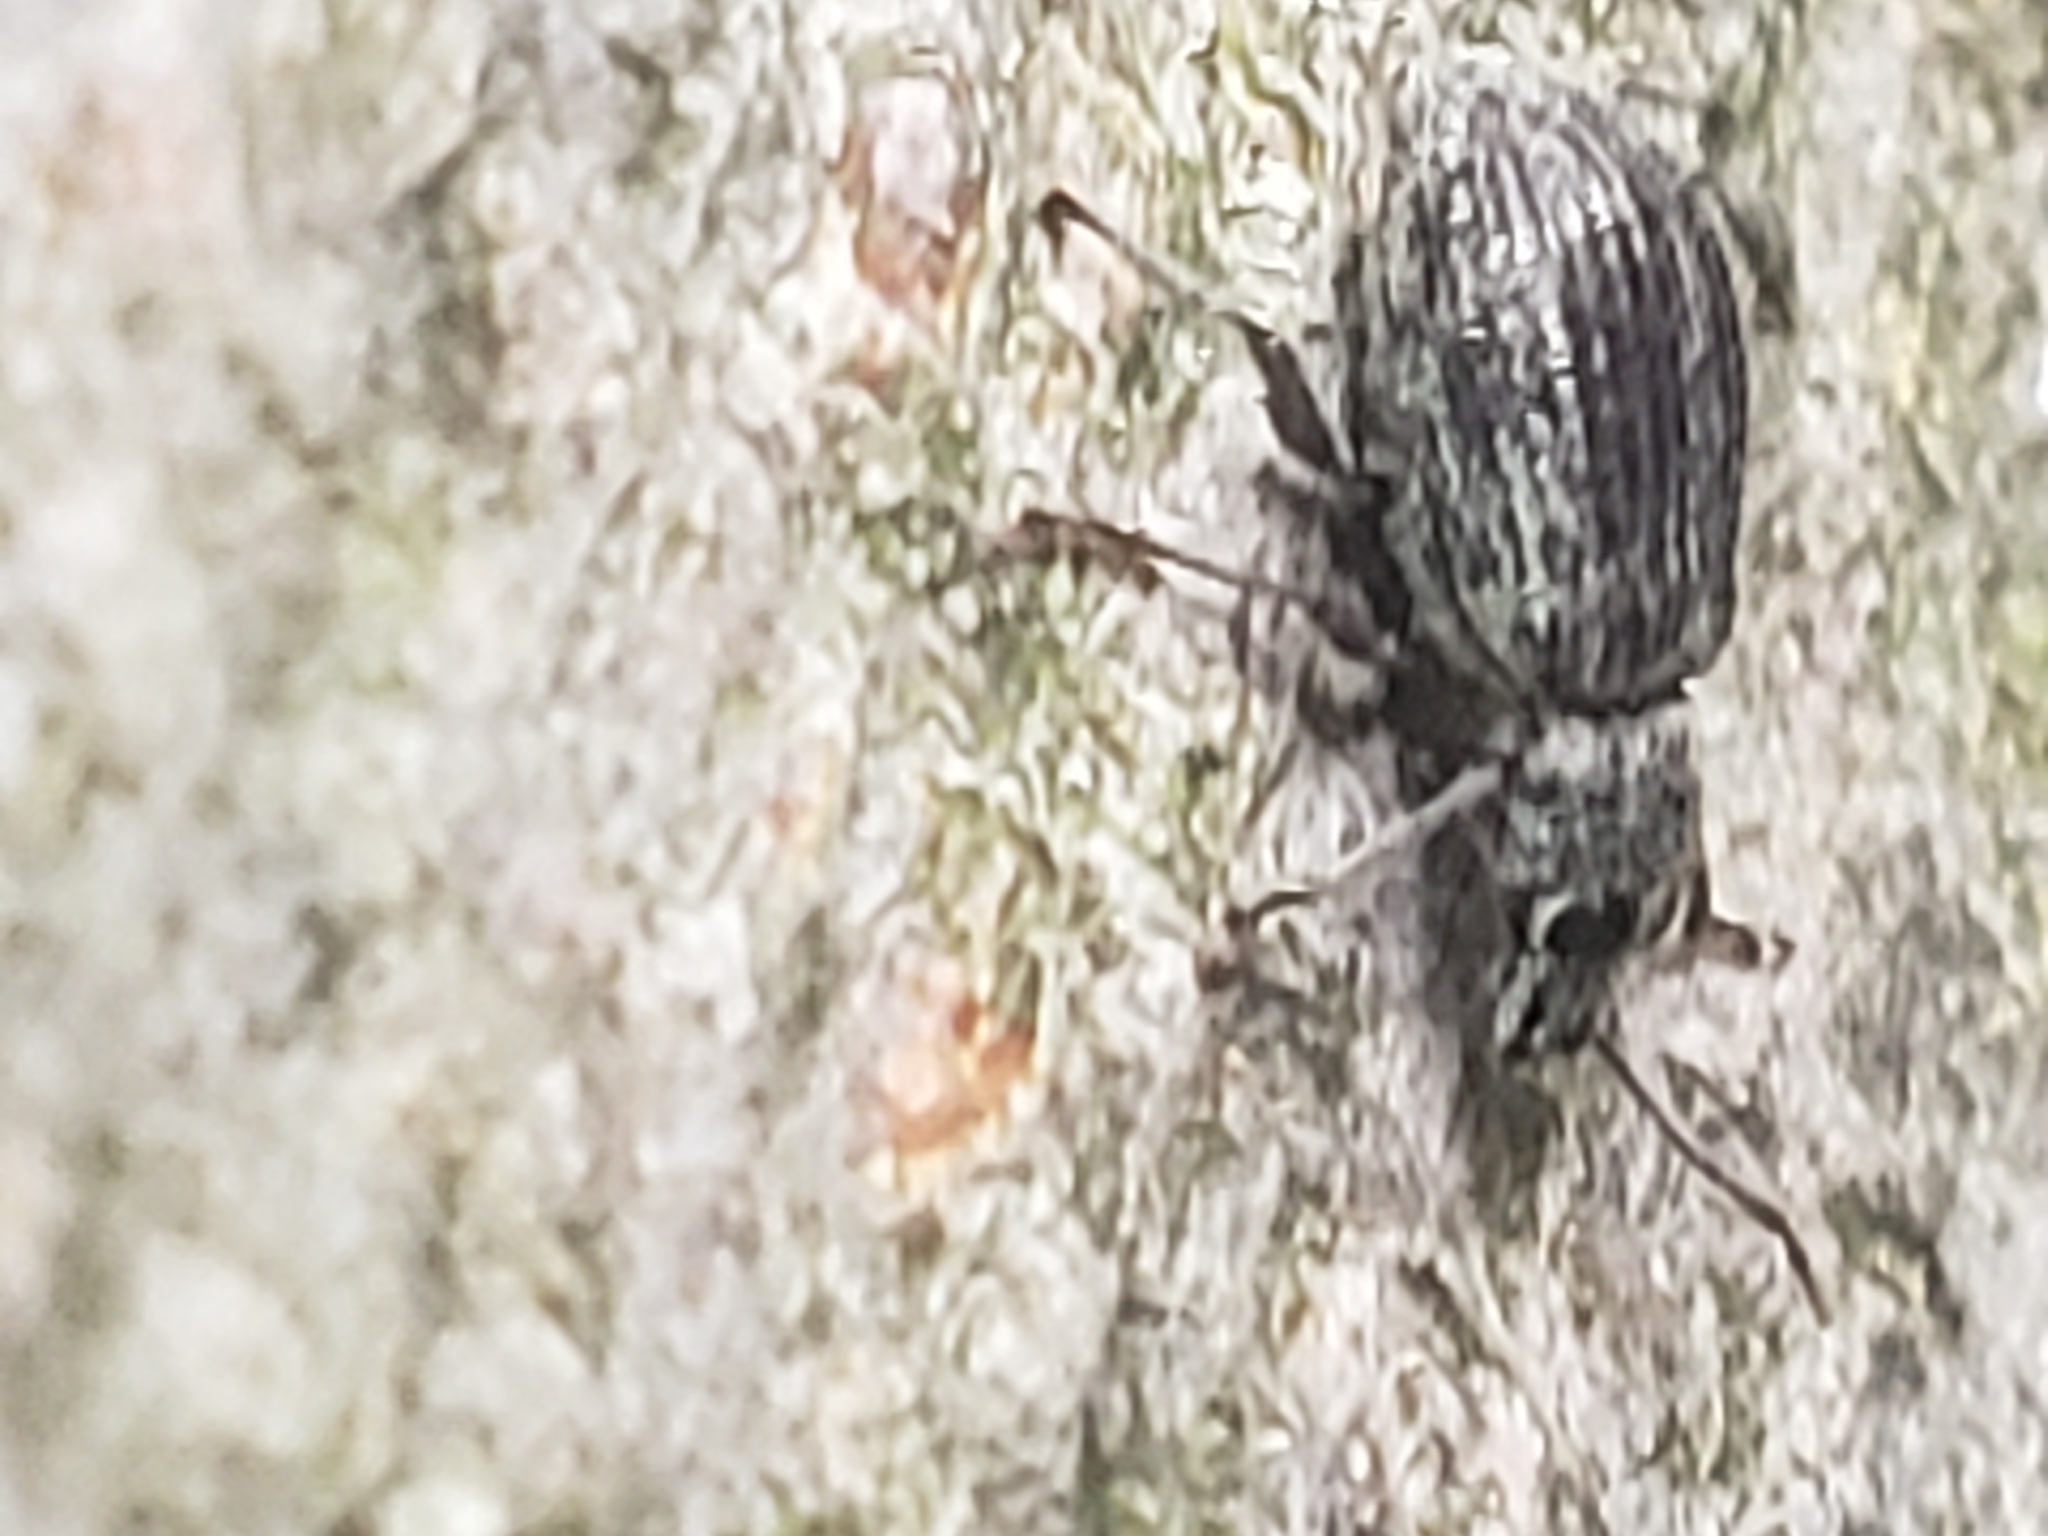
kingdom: Animalia
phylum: Arthropoda
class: Insecta
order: Coleoptera
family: Curculionidae
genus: Cyrtepistomus
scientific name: Cyrtepistomus castaneus
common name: Weevil
